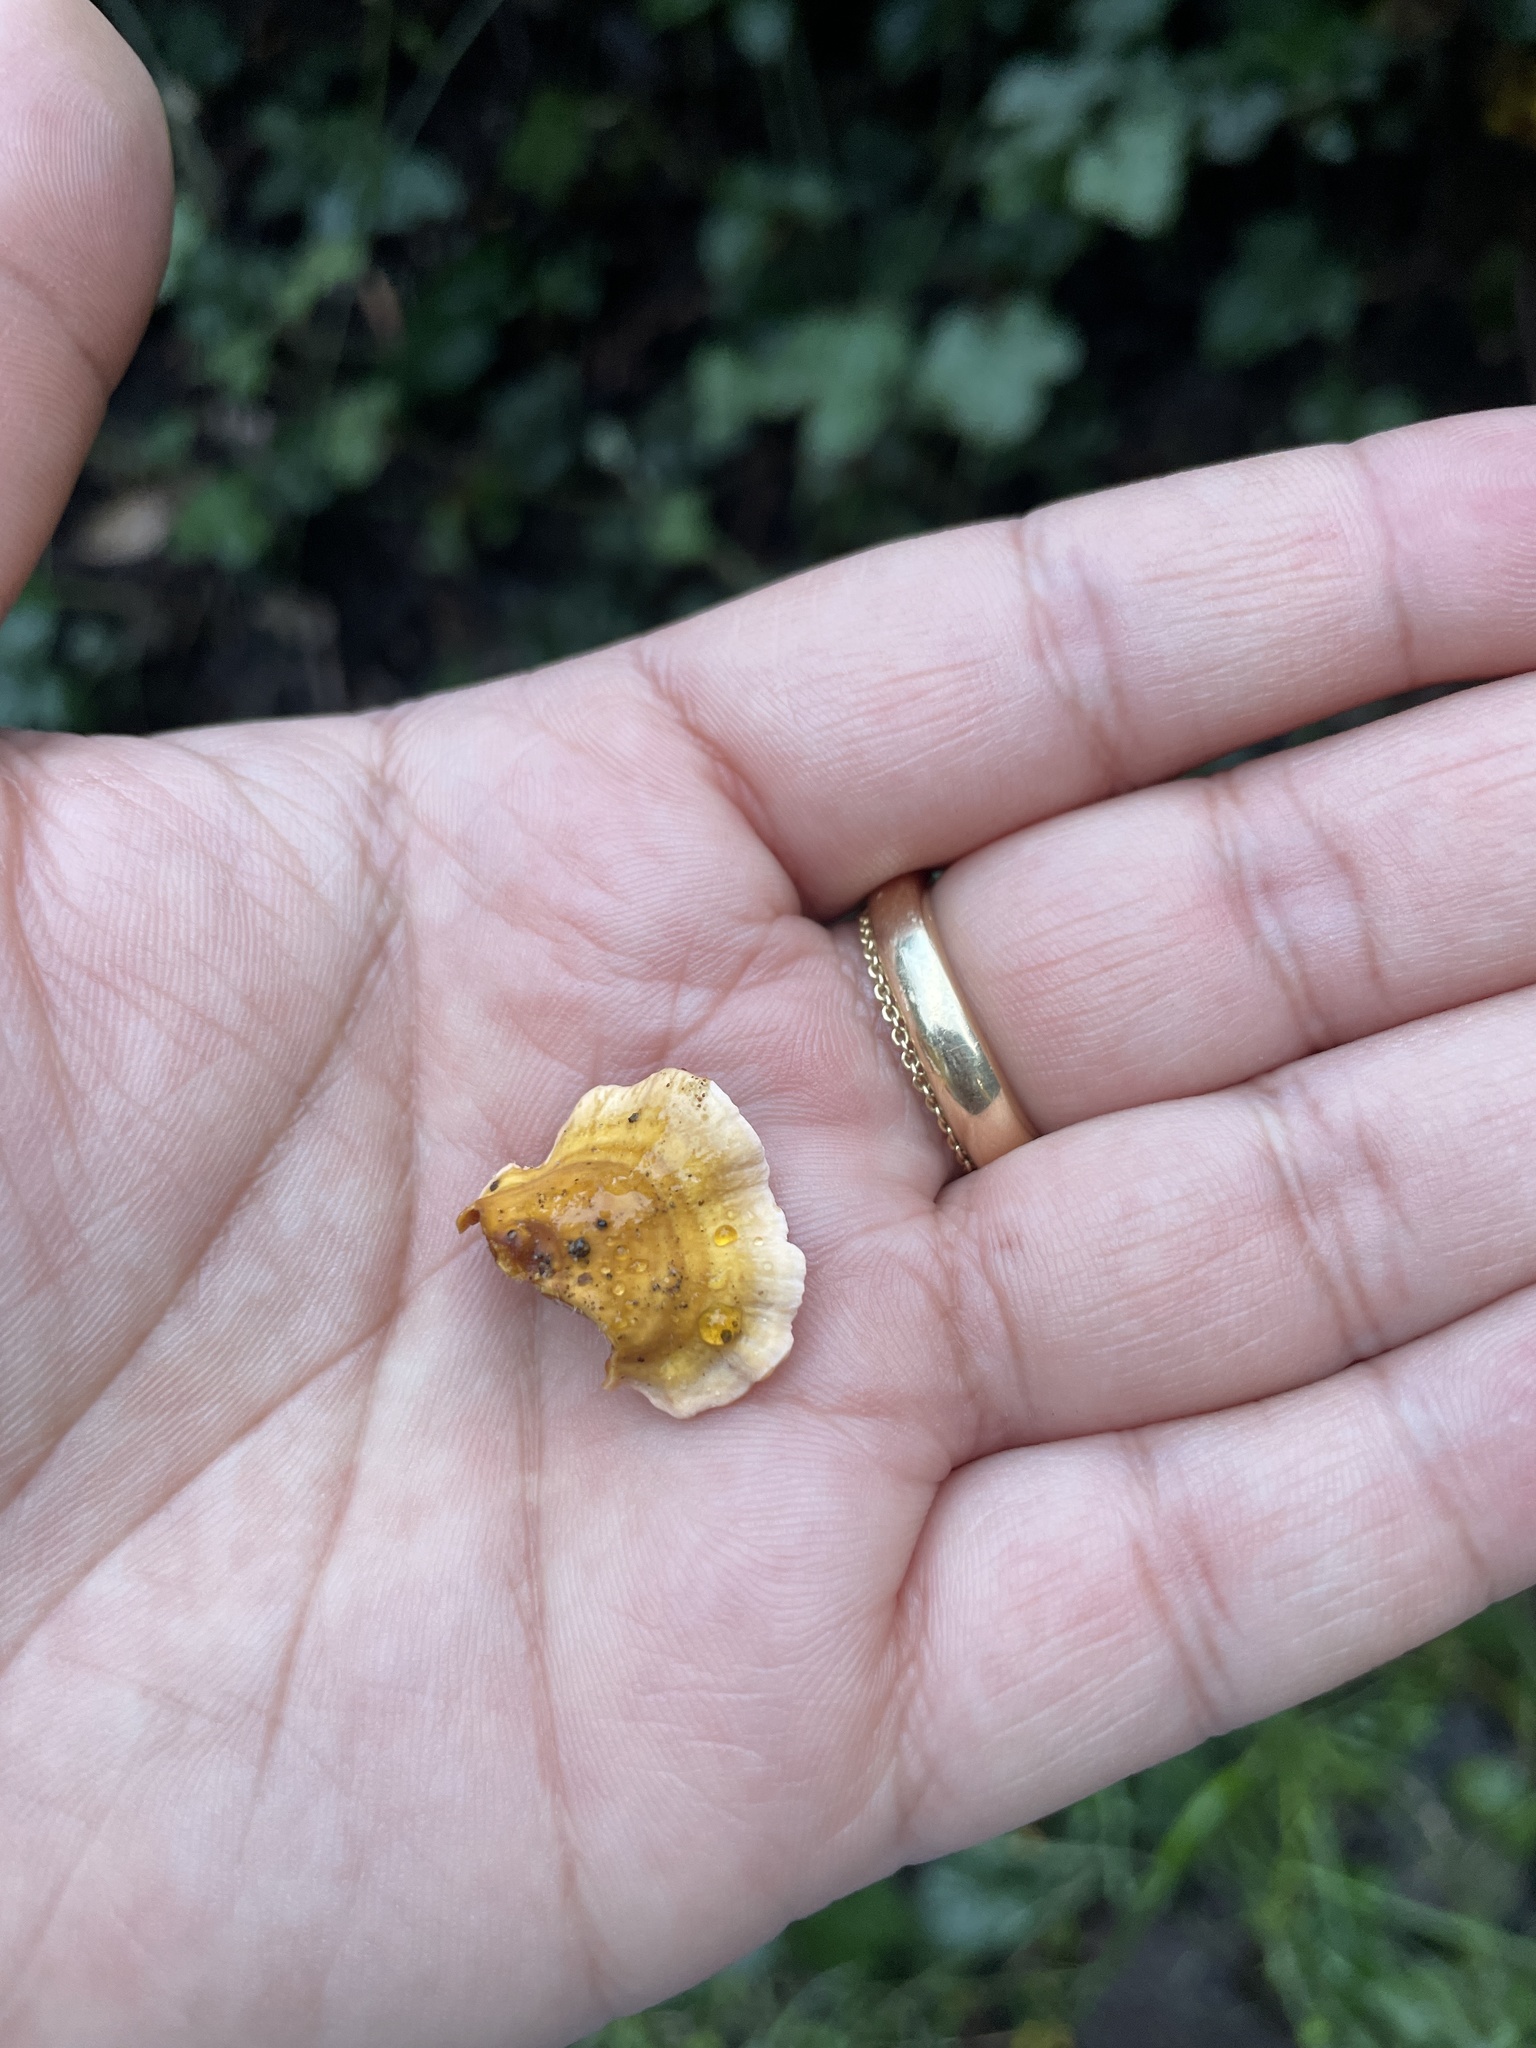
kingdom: Fungi
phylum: Basidiomycota
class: Agaricomycetes
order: Russulales
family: Stereaceae
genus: Stereum
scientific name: Stereum hirsutum
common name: Hairy curtain crust
